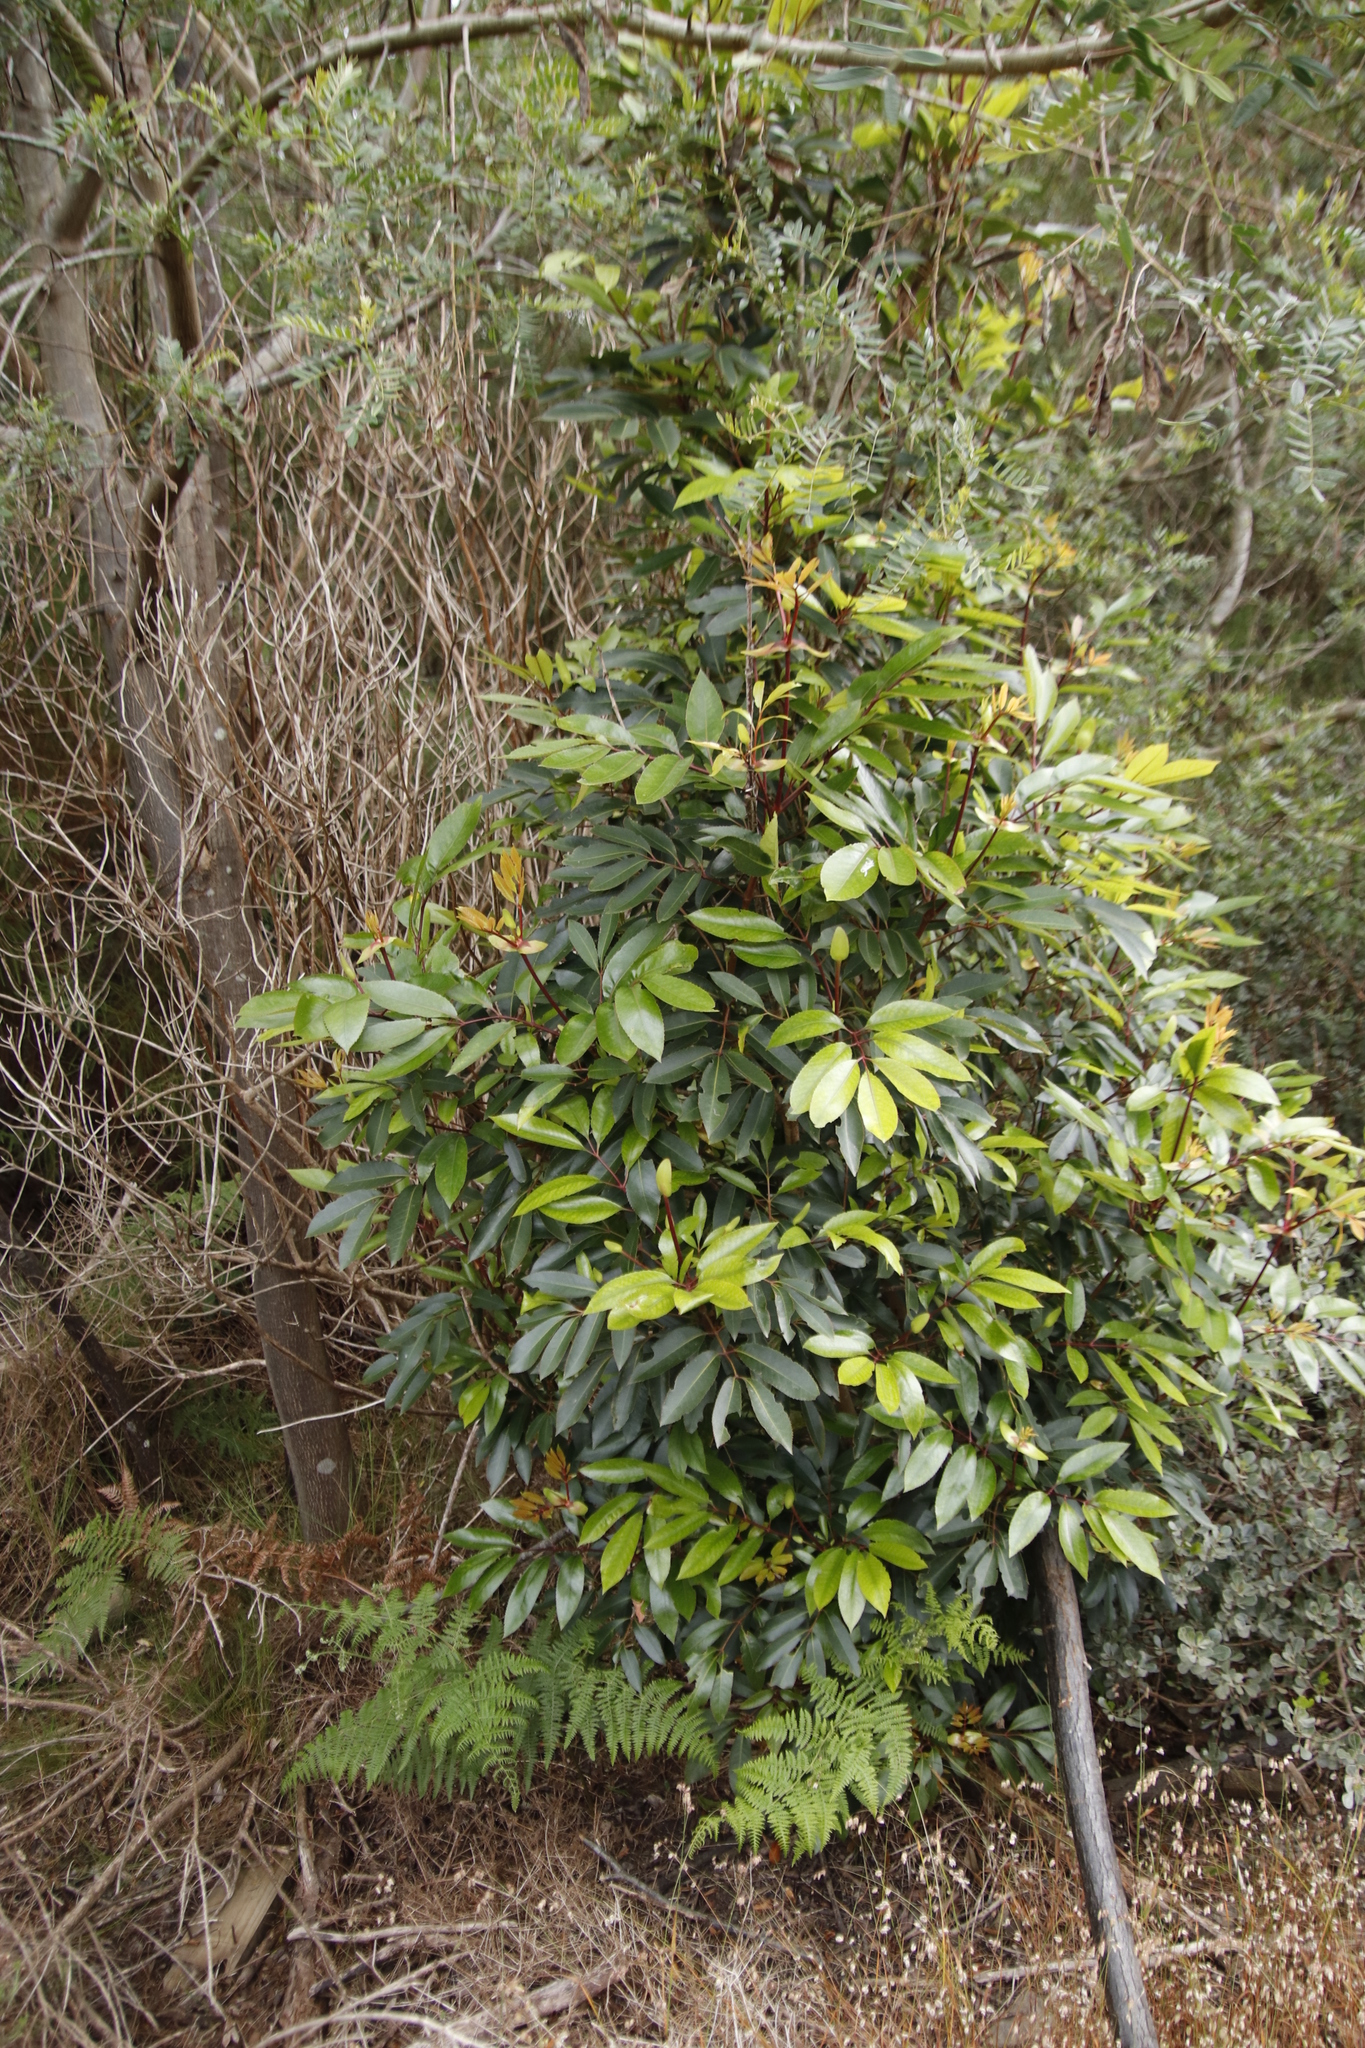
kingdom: Plantae
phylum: Tracheophyta
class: Magnoliopsida
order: Oxalidales
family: Cunoniaceae
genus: Cunonia
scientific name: Cunonia capensis
